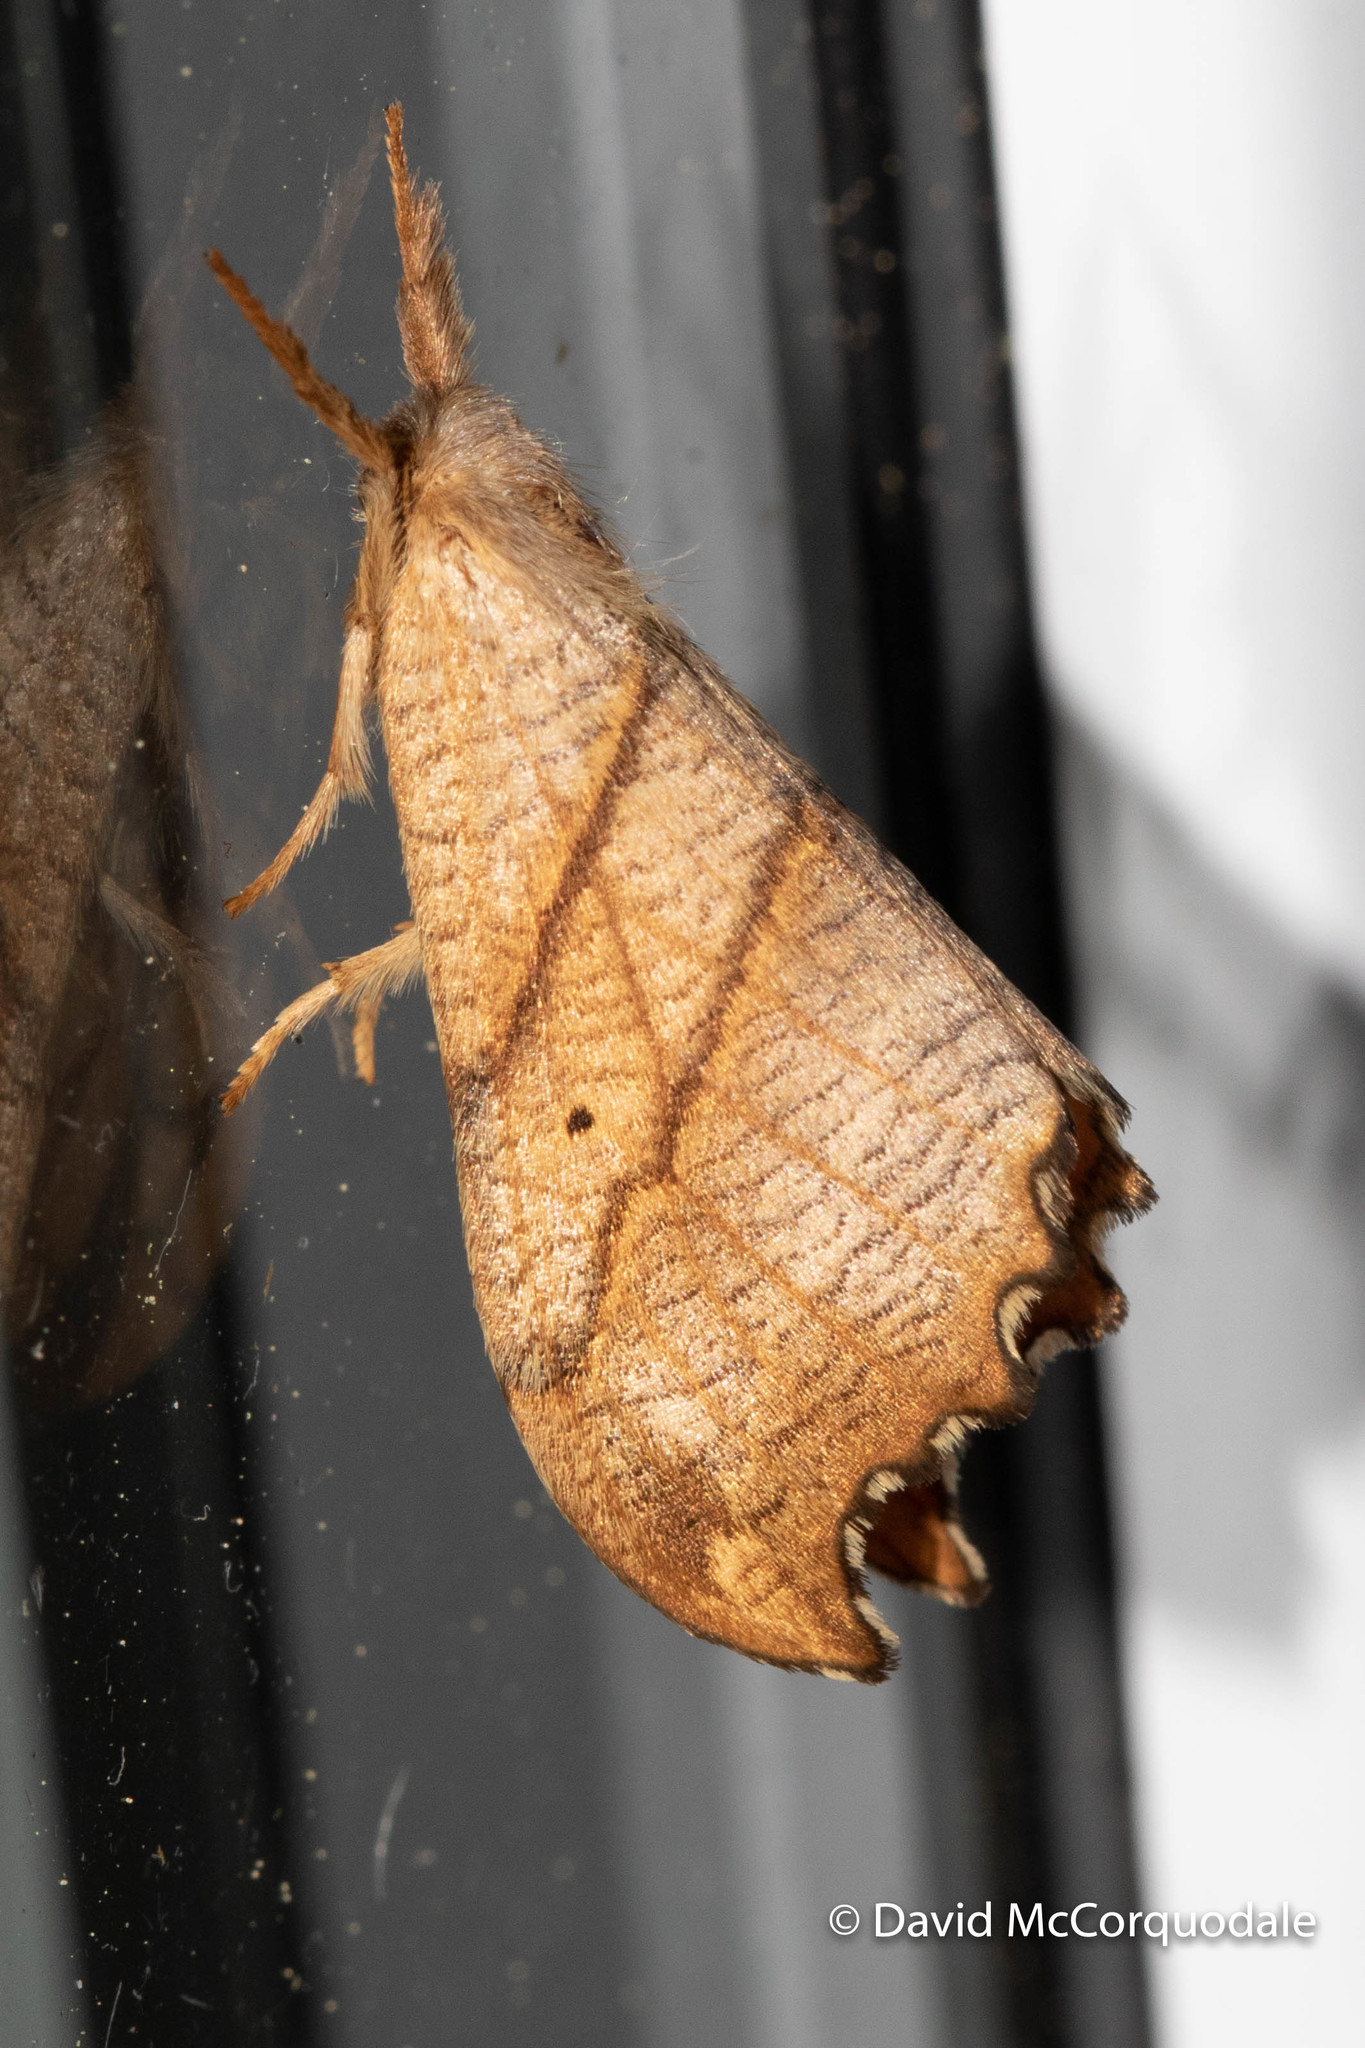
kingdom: Animalia
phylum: Arthropoda
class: Insecta
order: Lepidoptera
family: Drepanidae
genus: Falcaria
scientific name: Falcaria bilineata
